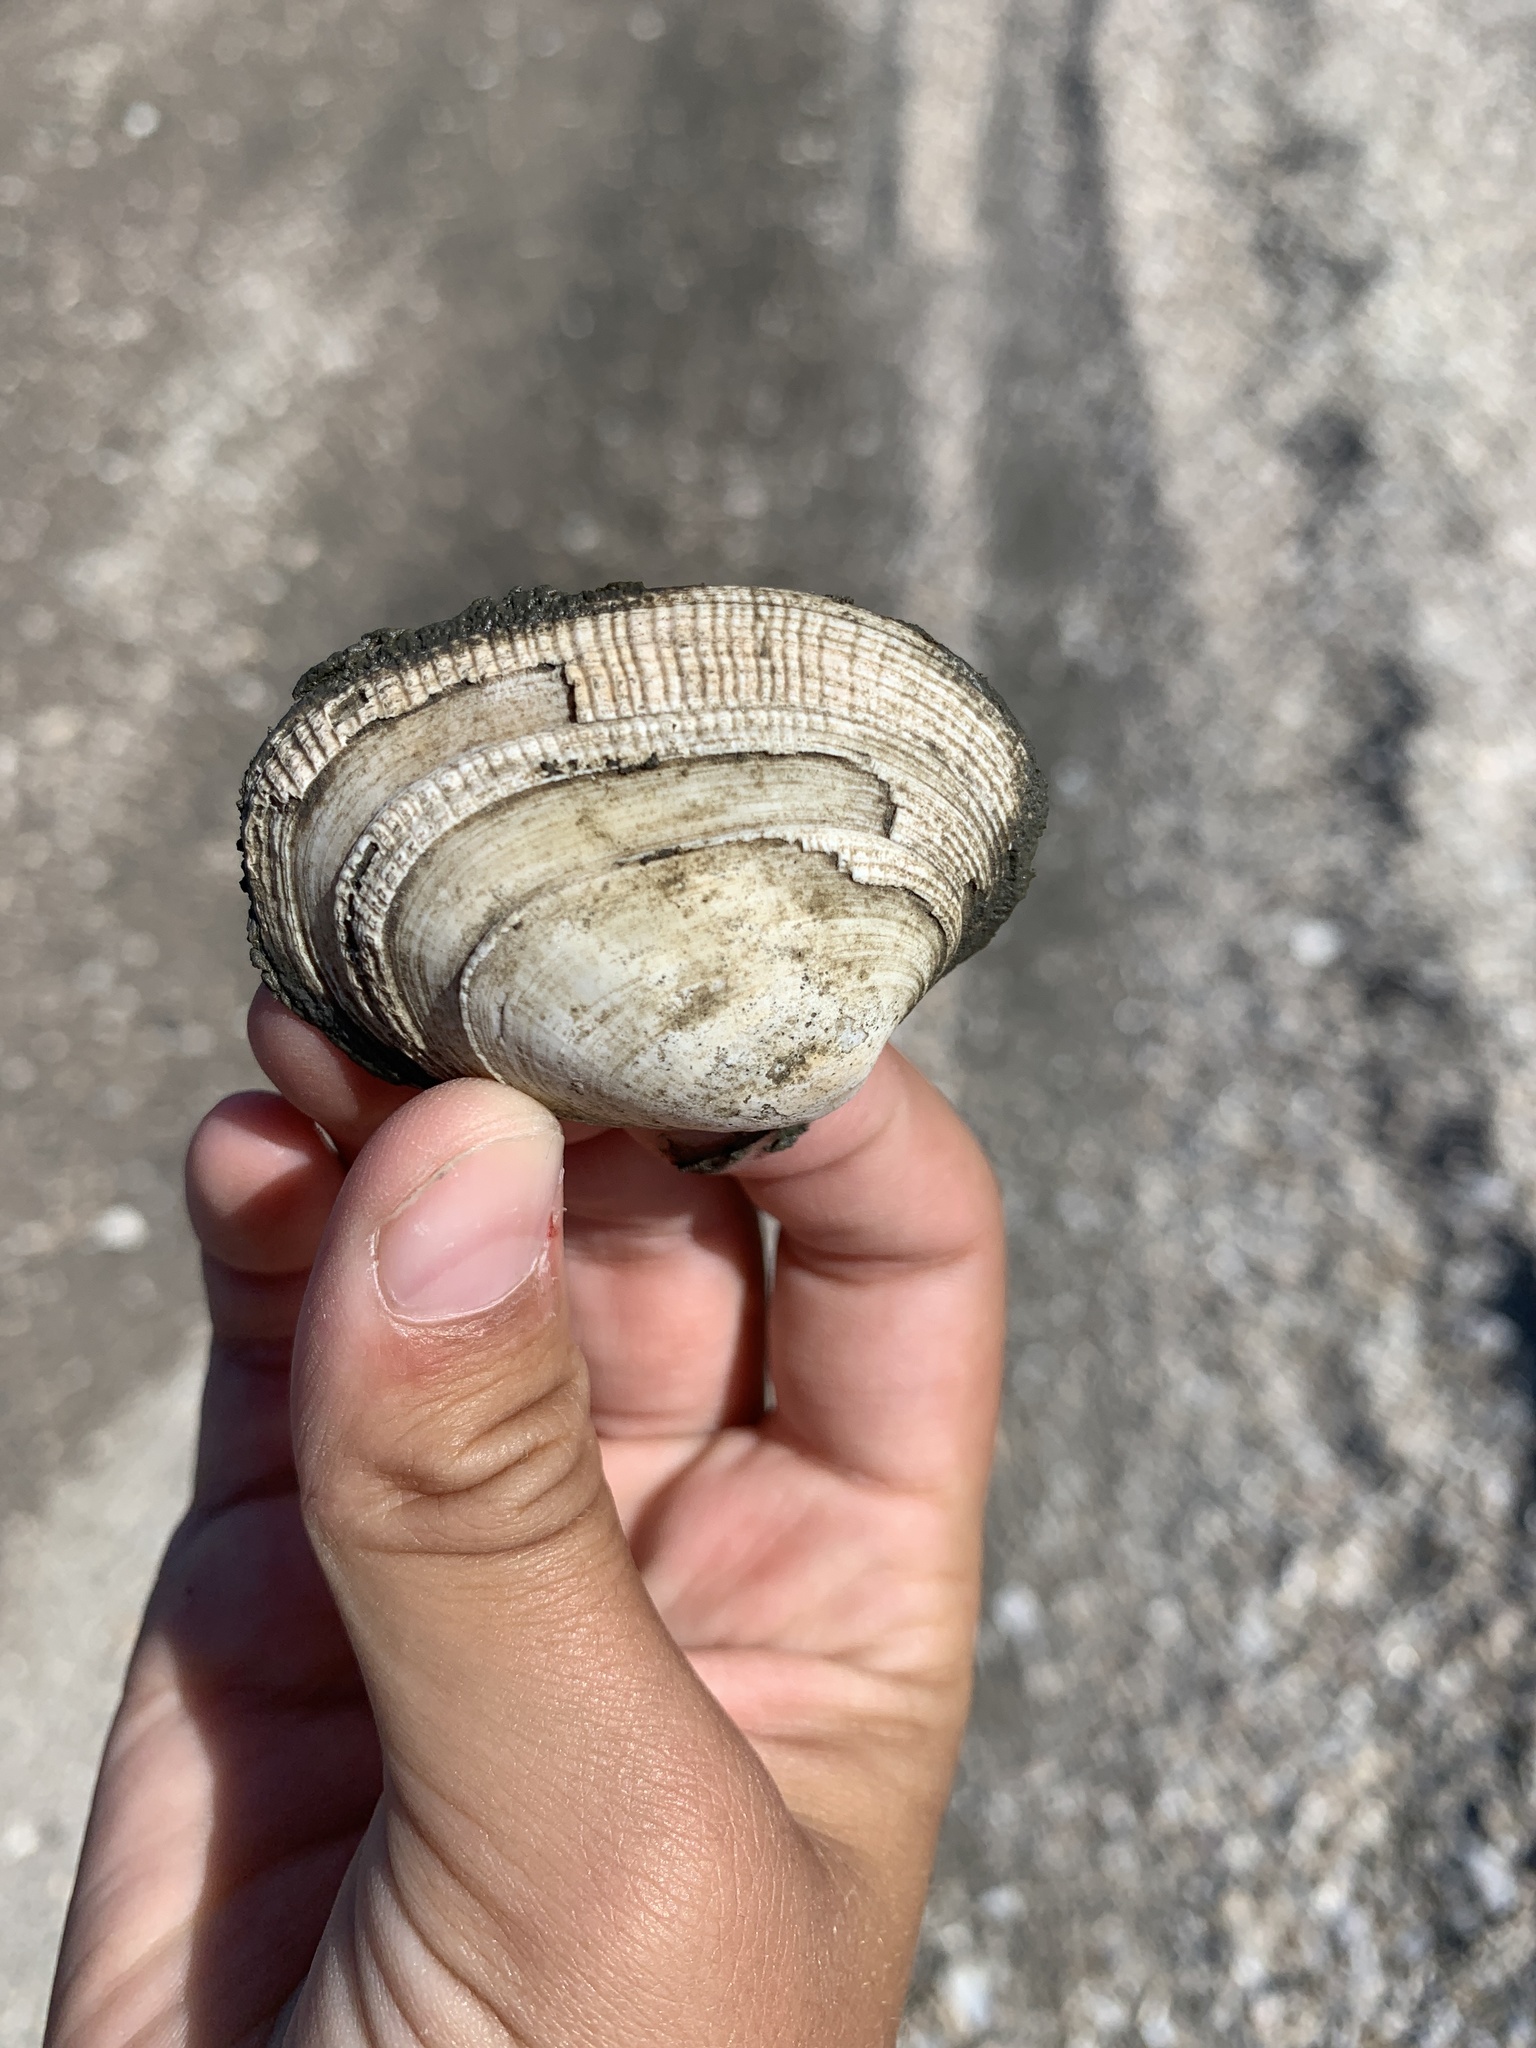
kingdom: Animalia
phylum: Mollusca
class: Bivalvia
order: Venerida
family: Veneridae
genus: Ruditapes
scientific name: Ruditapes philippinarum
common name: Manila clam
